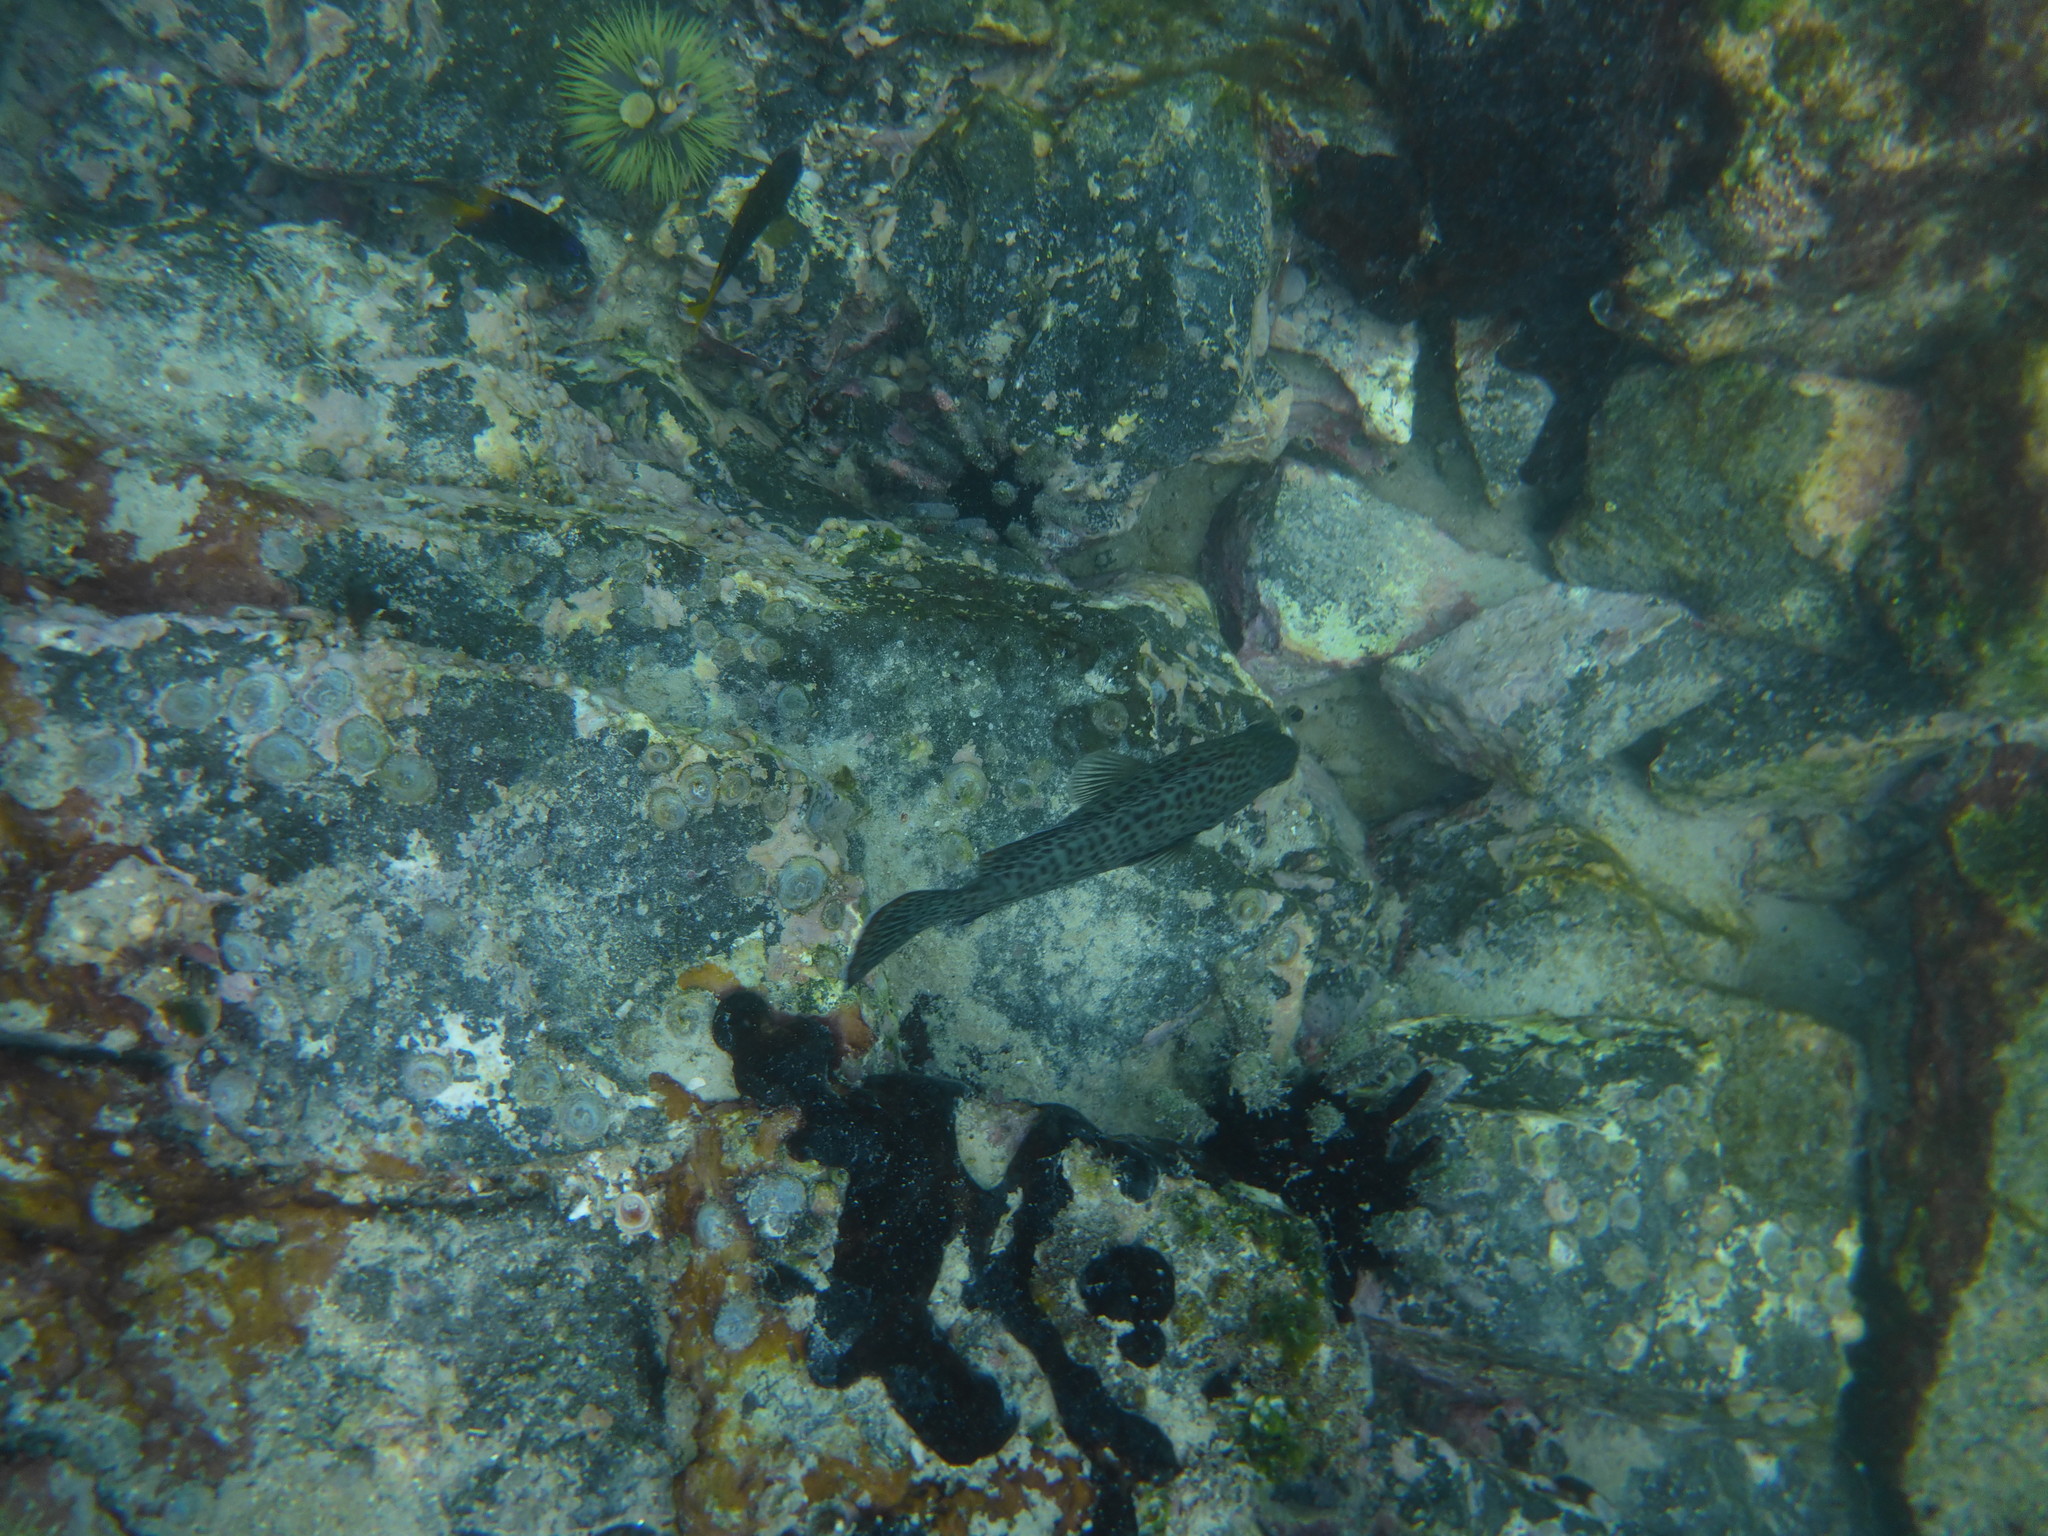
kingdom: Animalia
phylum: Chordata
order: Perciformes
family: Serranidae
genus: Dermatolepis
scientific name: Dermatolepis dermatolepis
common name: Leather bass
